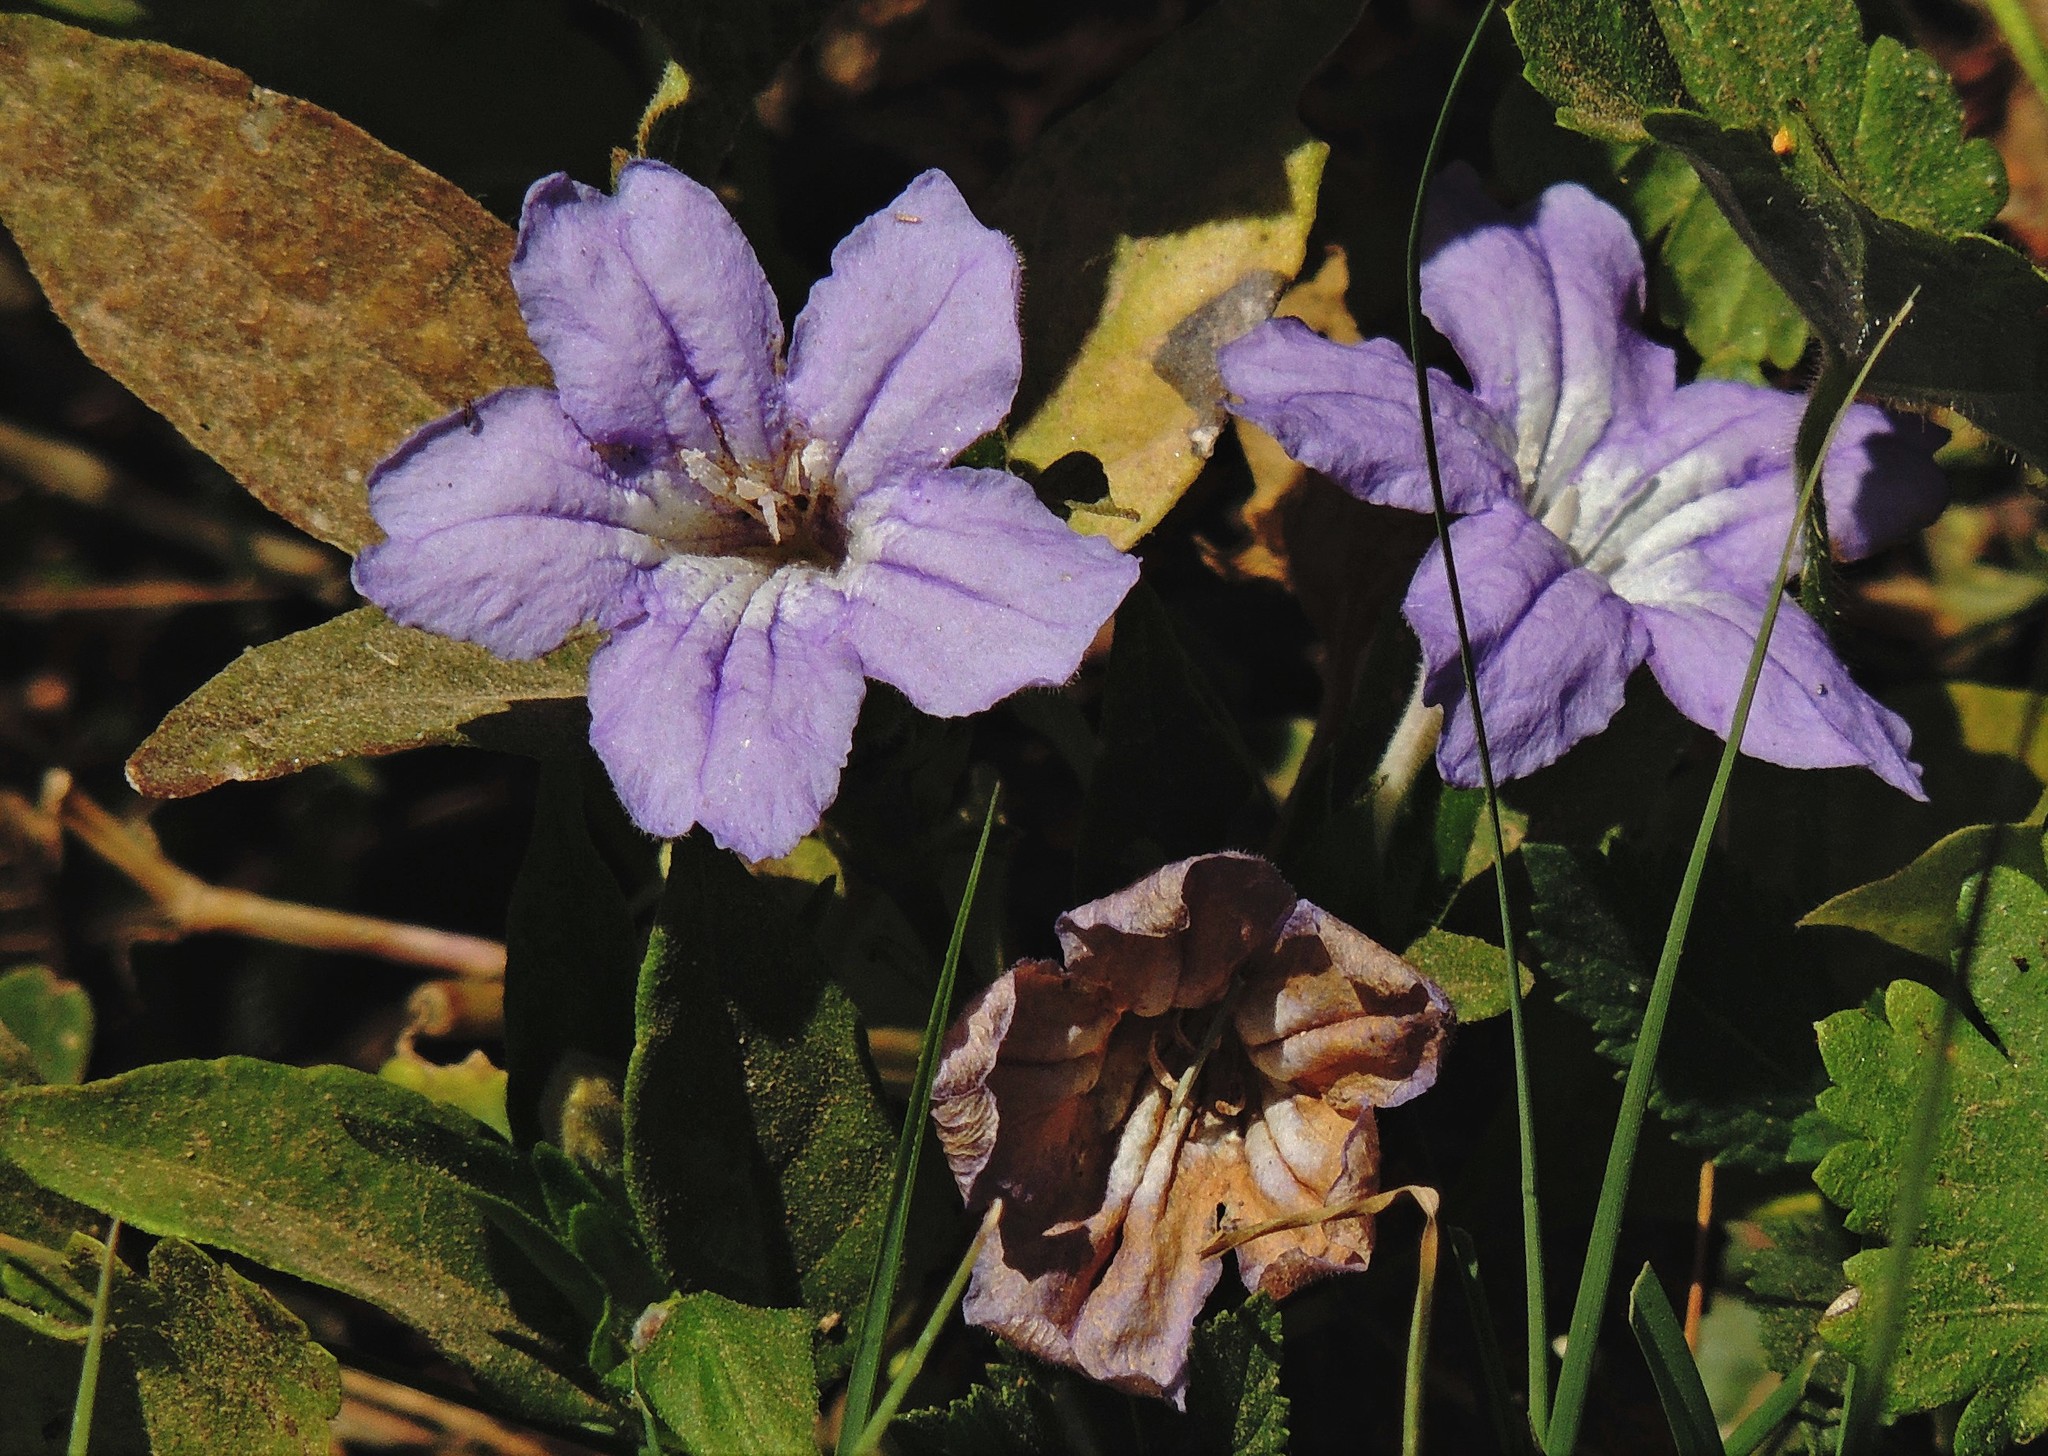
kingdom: Plantae
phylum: Tracheophyta
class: Magnoliopsida
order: Lamiales
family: Acanthaceae
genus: Ruellia
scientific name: Ruellia erythropus
